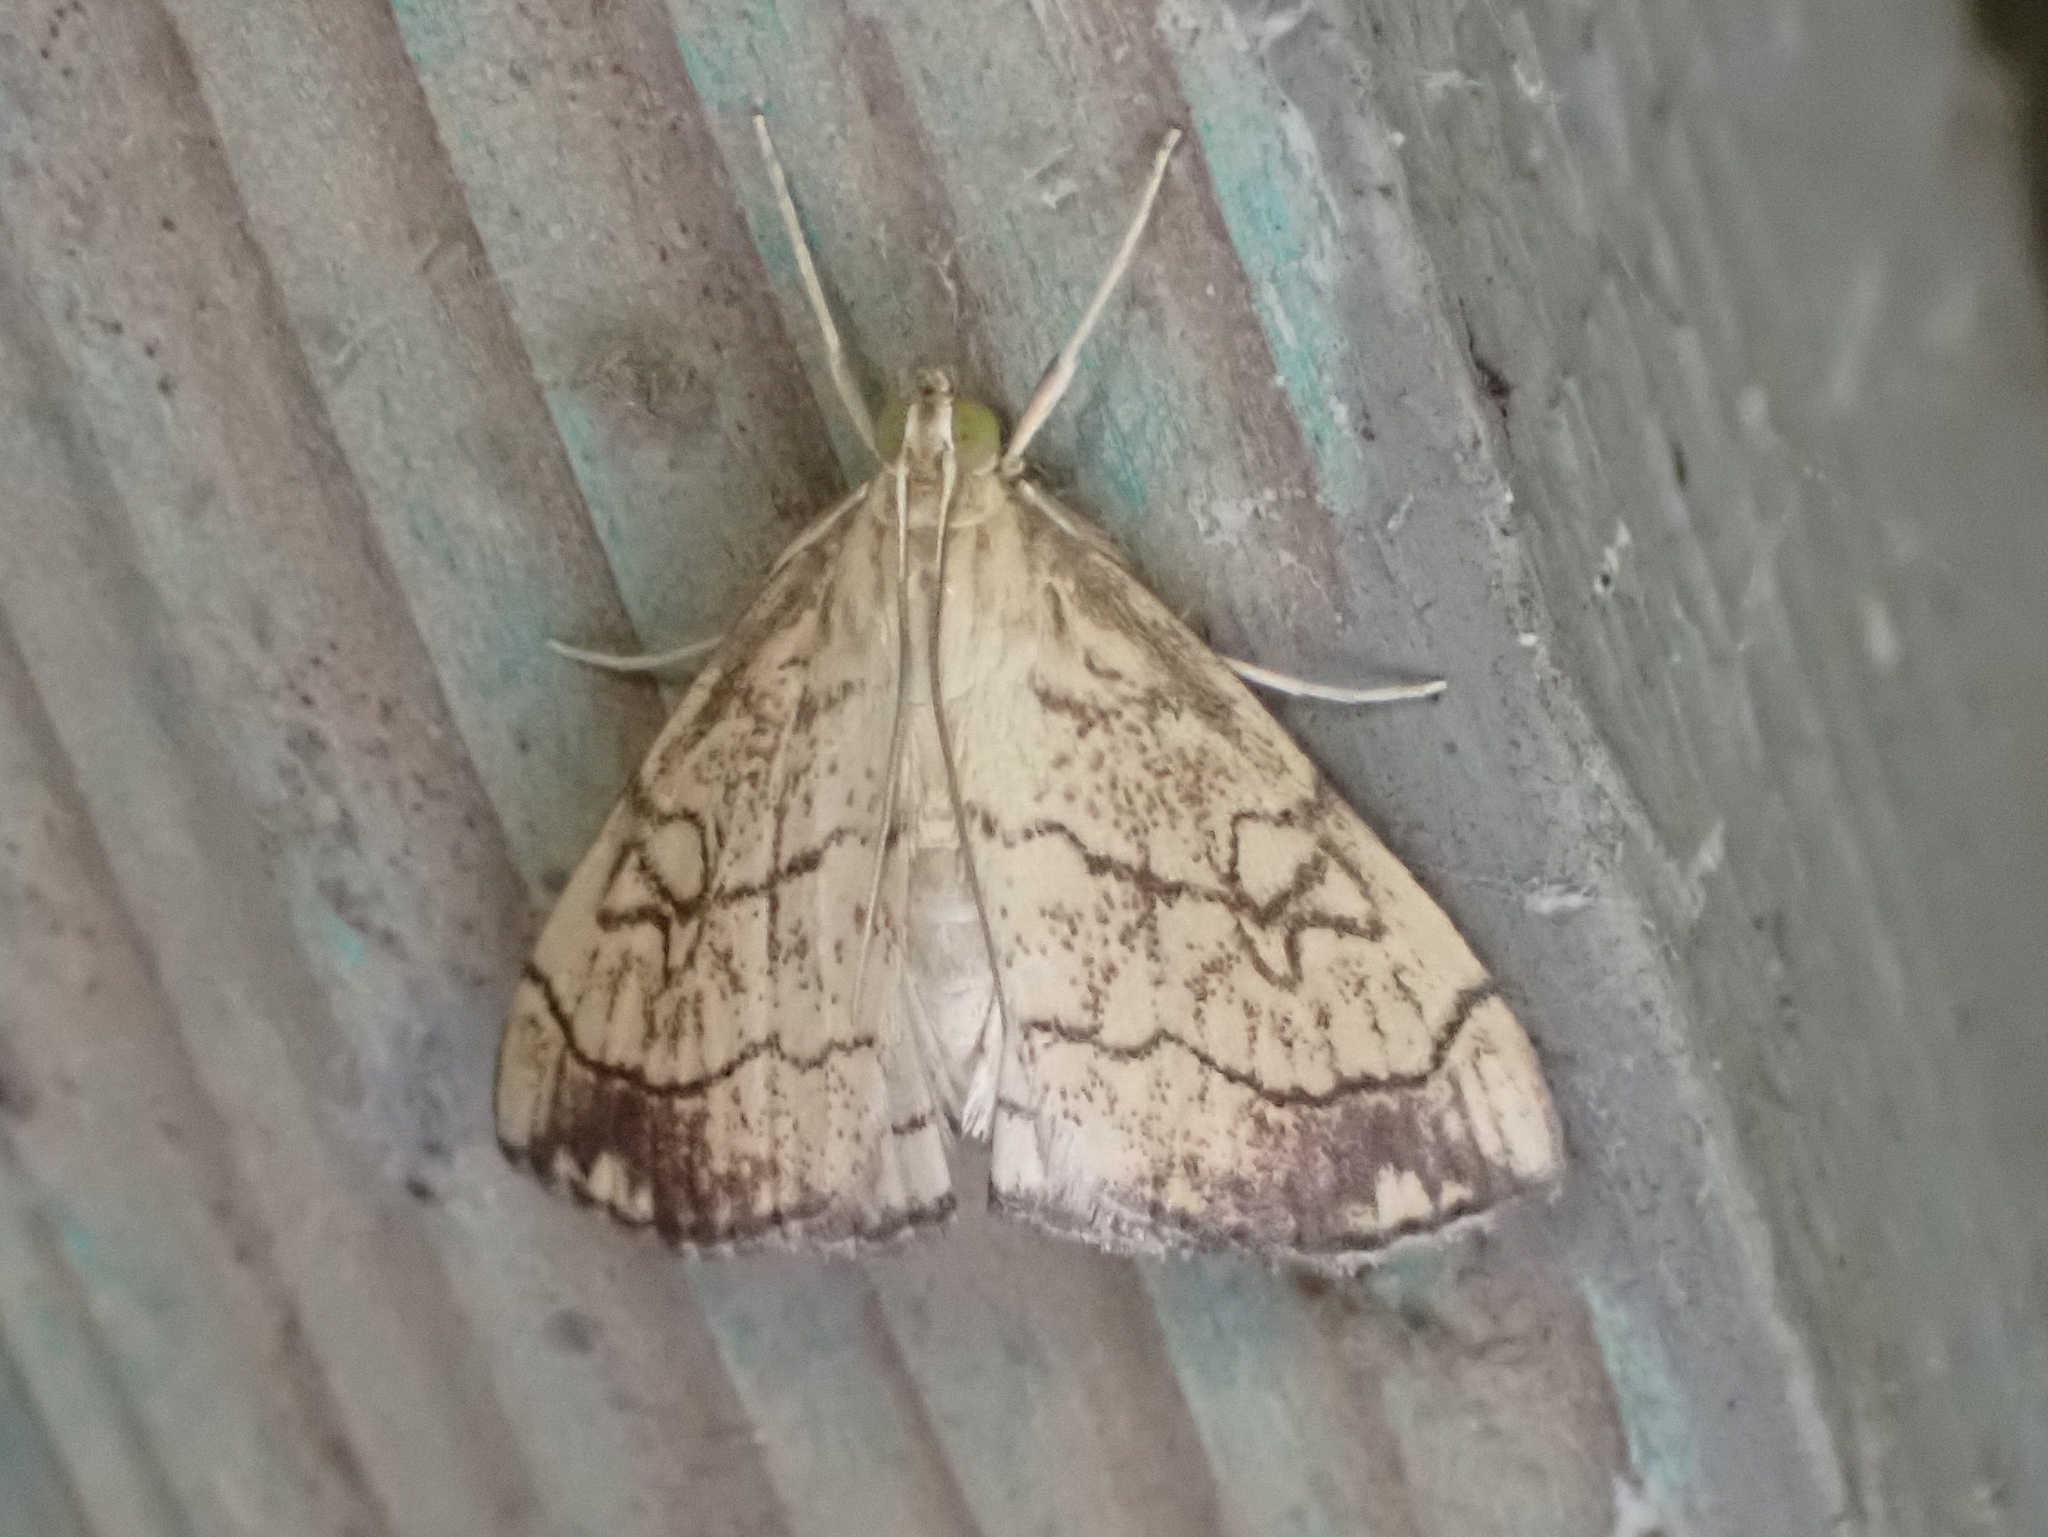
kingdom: Animalia
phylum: Arthropoda
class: Insecta
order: Lepidoptera
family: Crambidae
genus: Evergestis
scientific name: Evergestis pallidata
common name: Chequered pearl
